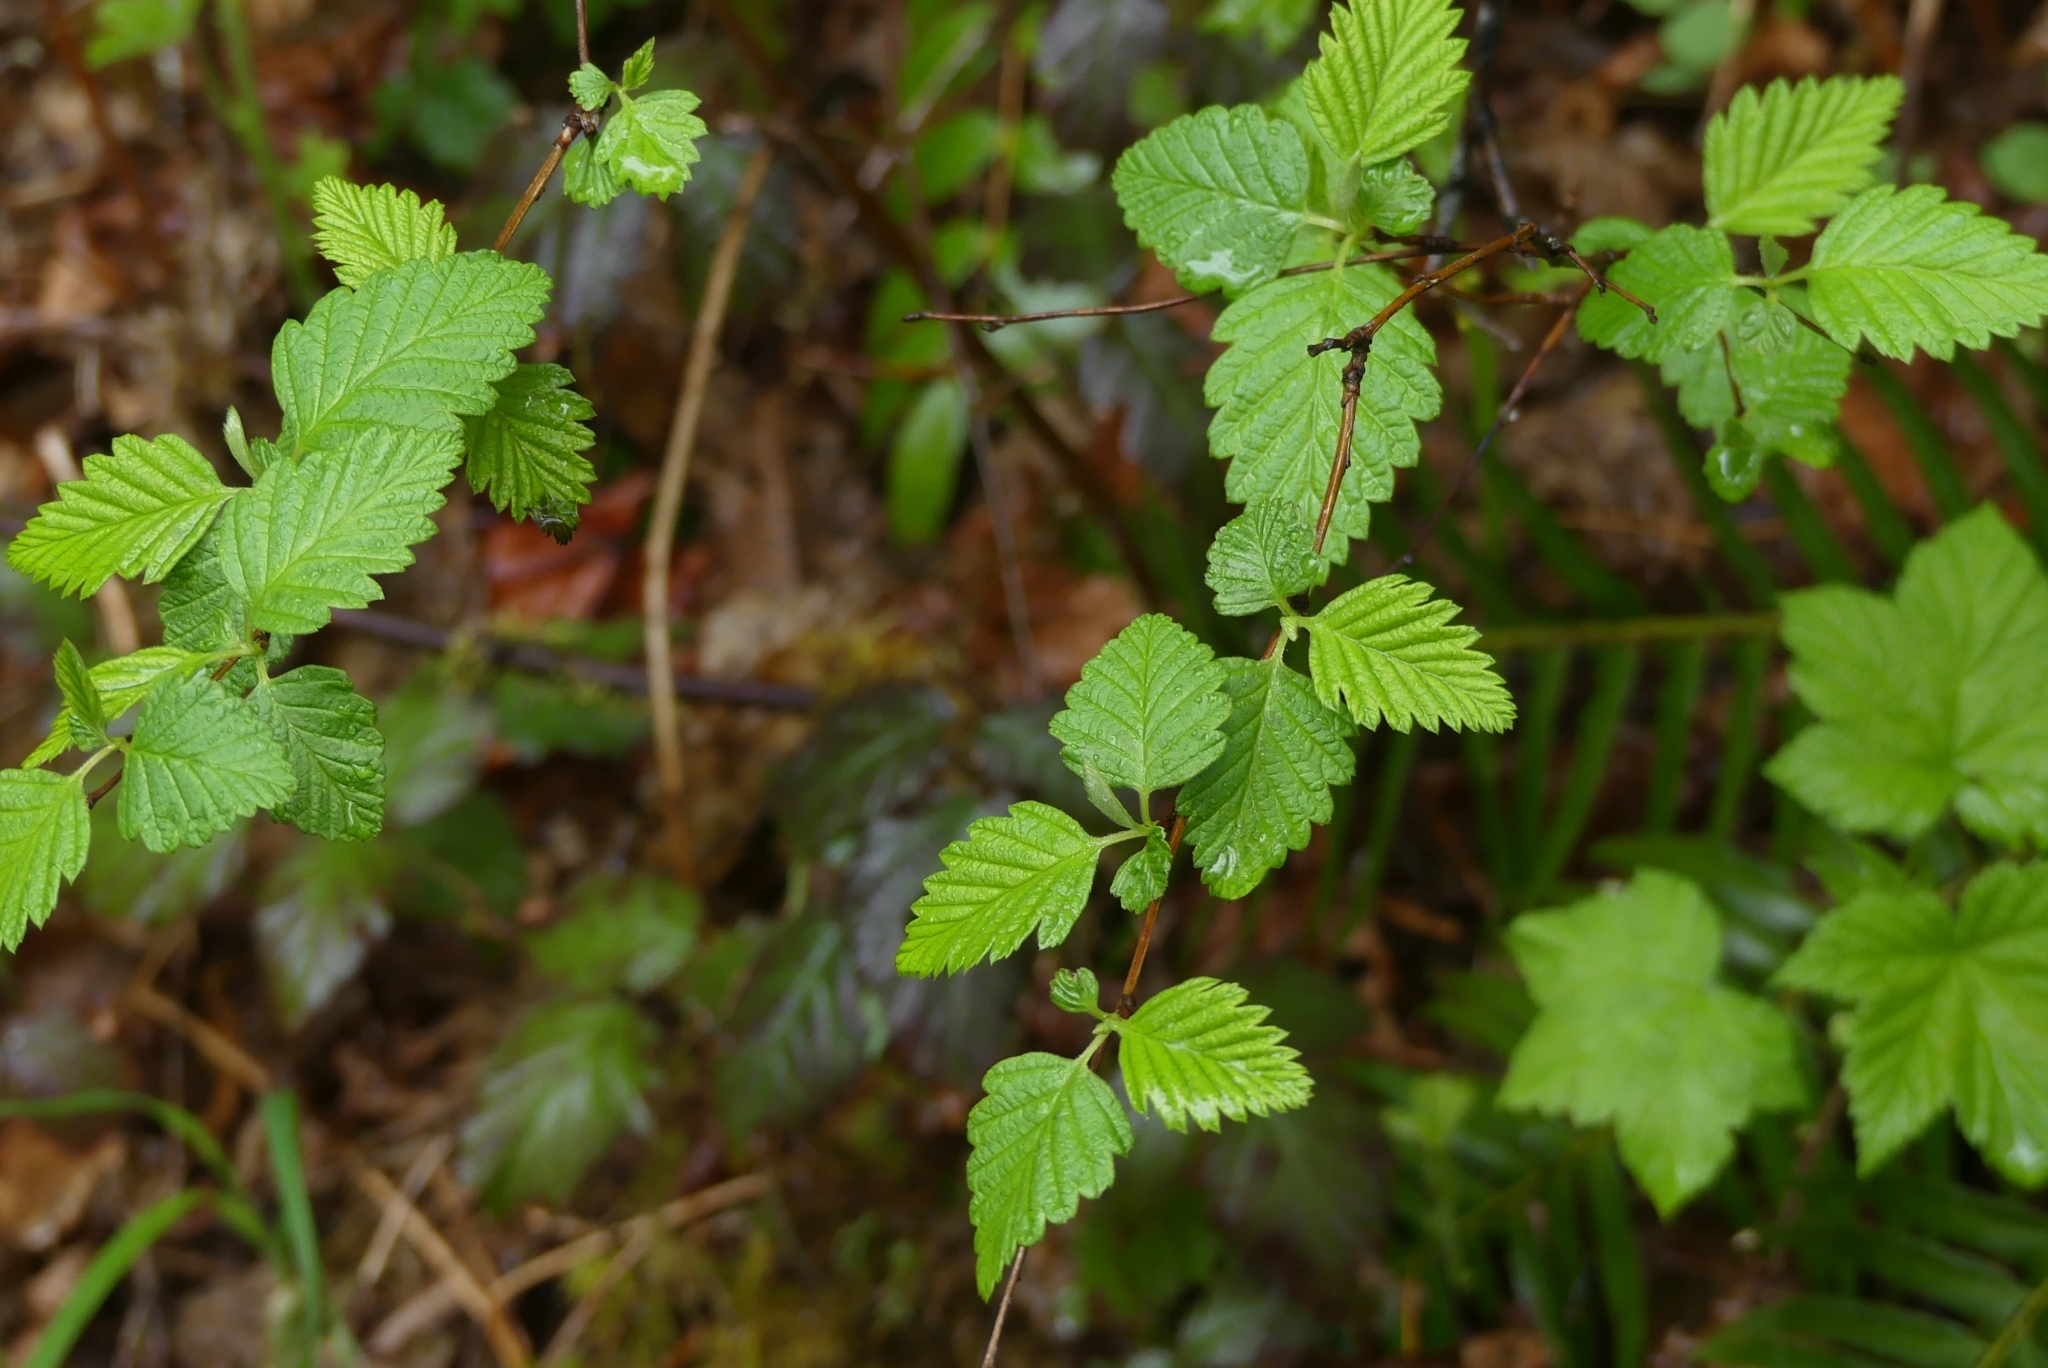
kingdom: Plantae
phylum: Tracheophyta
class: Magnoliopsida
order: Rosales
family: Rosaceae
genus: Holodiscus
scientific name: Holodiscus discolor
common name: Oceanspray
